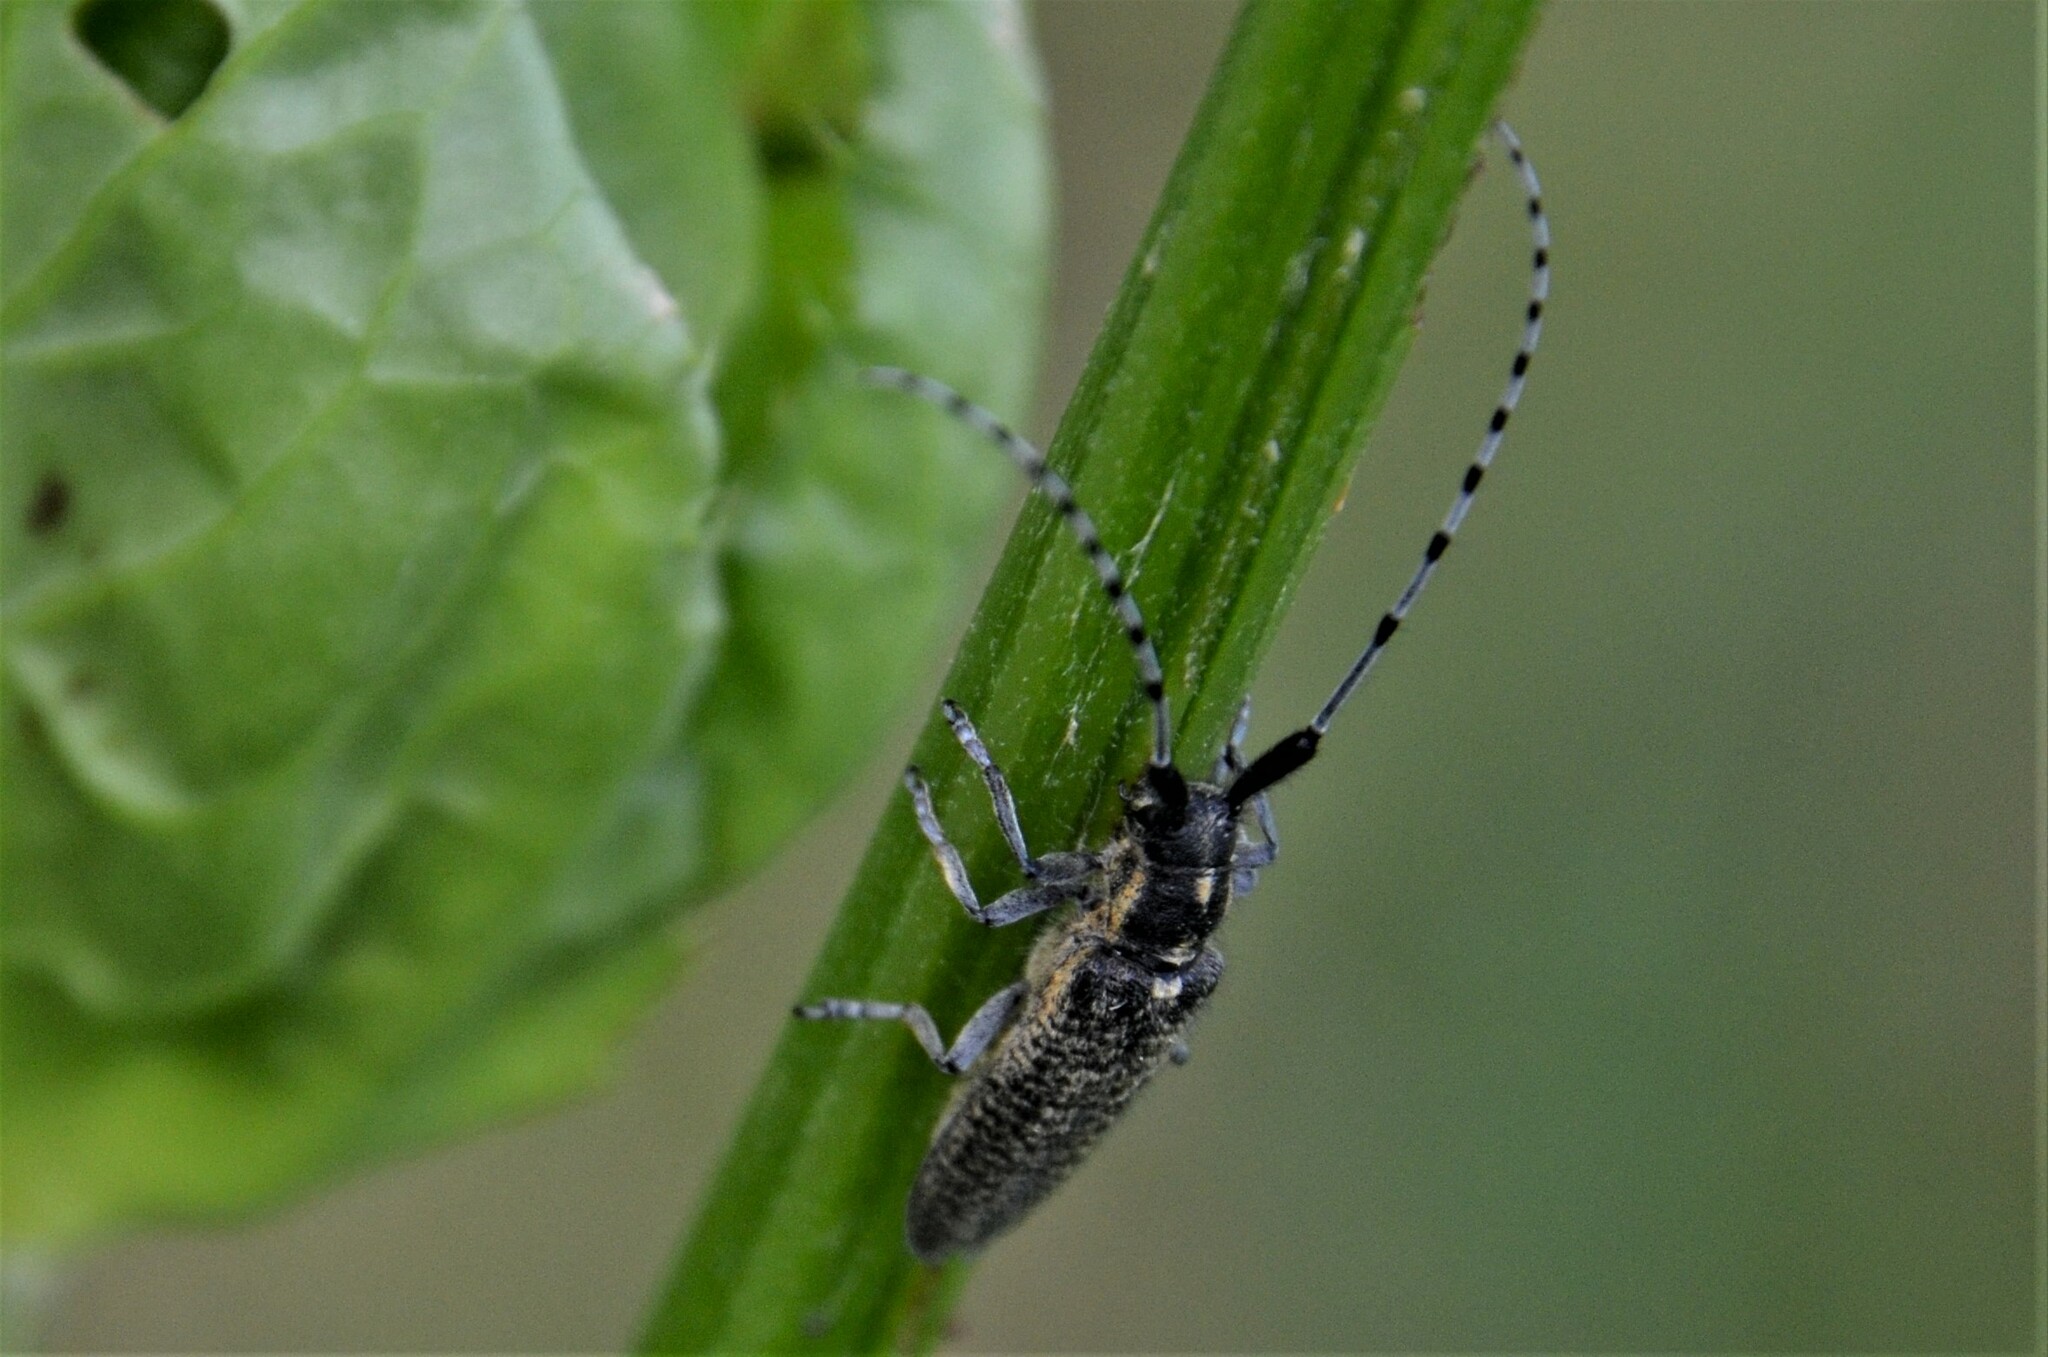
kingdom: Animalia
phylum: Arthropoda
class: Insecta
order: Coleoptera
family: Cerambycidae
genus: Agapanthia
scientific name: Agapanthia villosoviridescens
